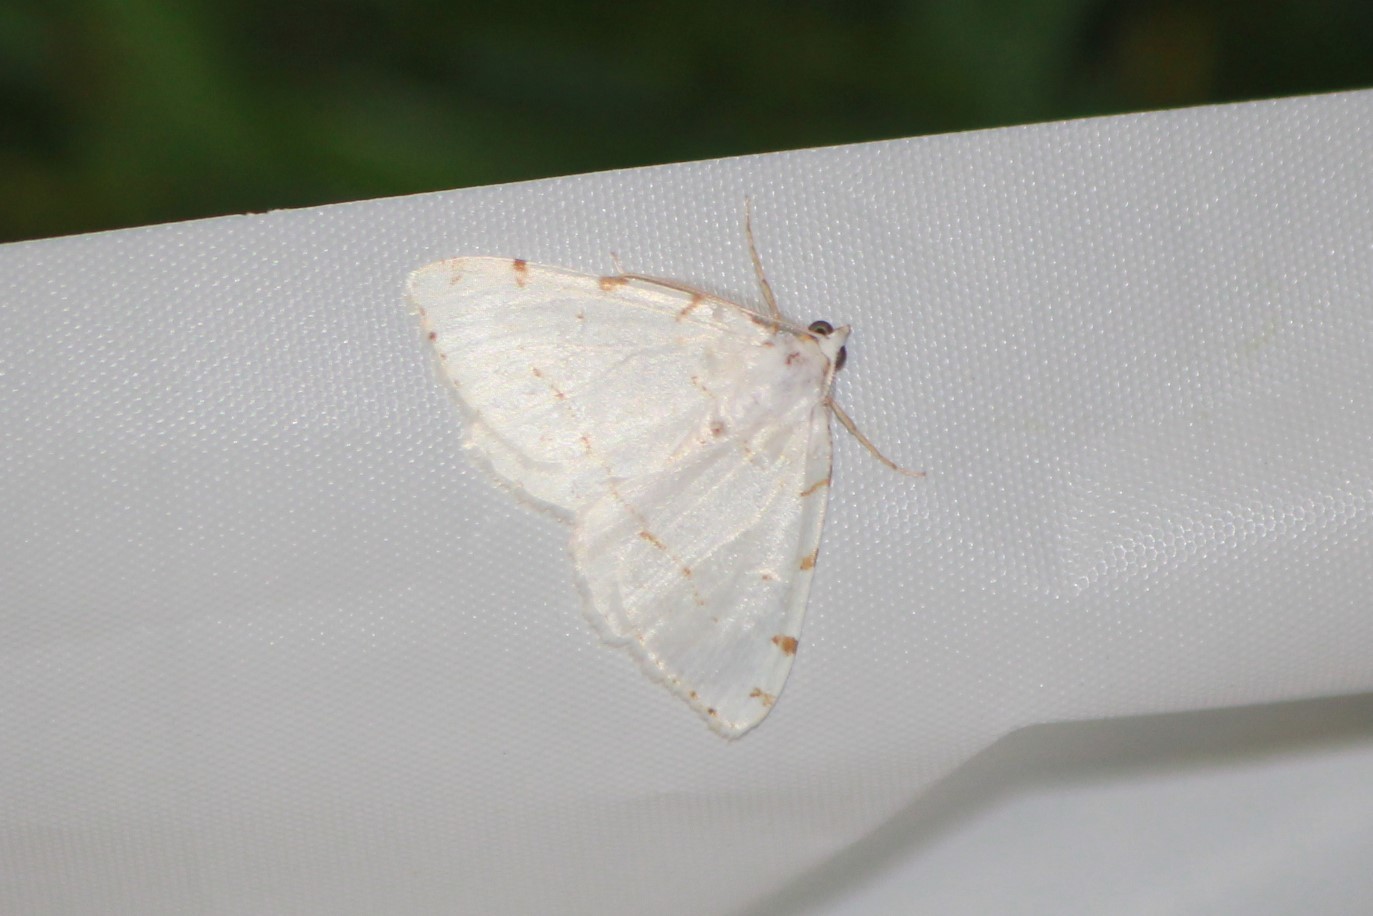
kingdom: Animalia
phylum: Arthropoda
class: Insecta
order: Lepidoptera
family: Geometridae
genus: Macaria
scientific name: Macaria pustularia
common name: Lesser maple spanworm moth
